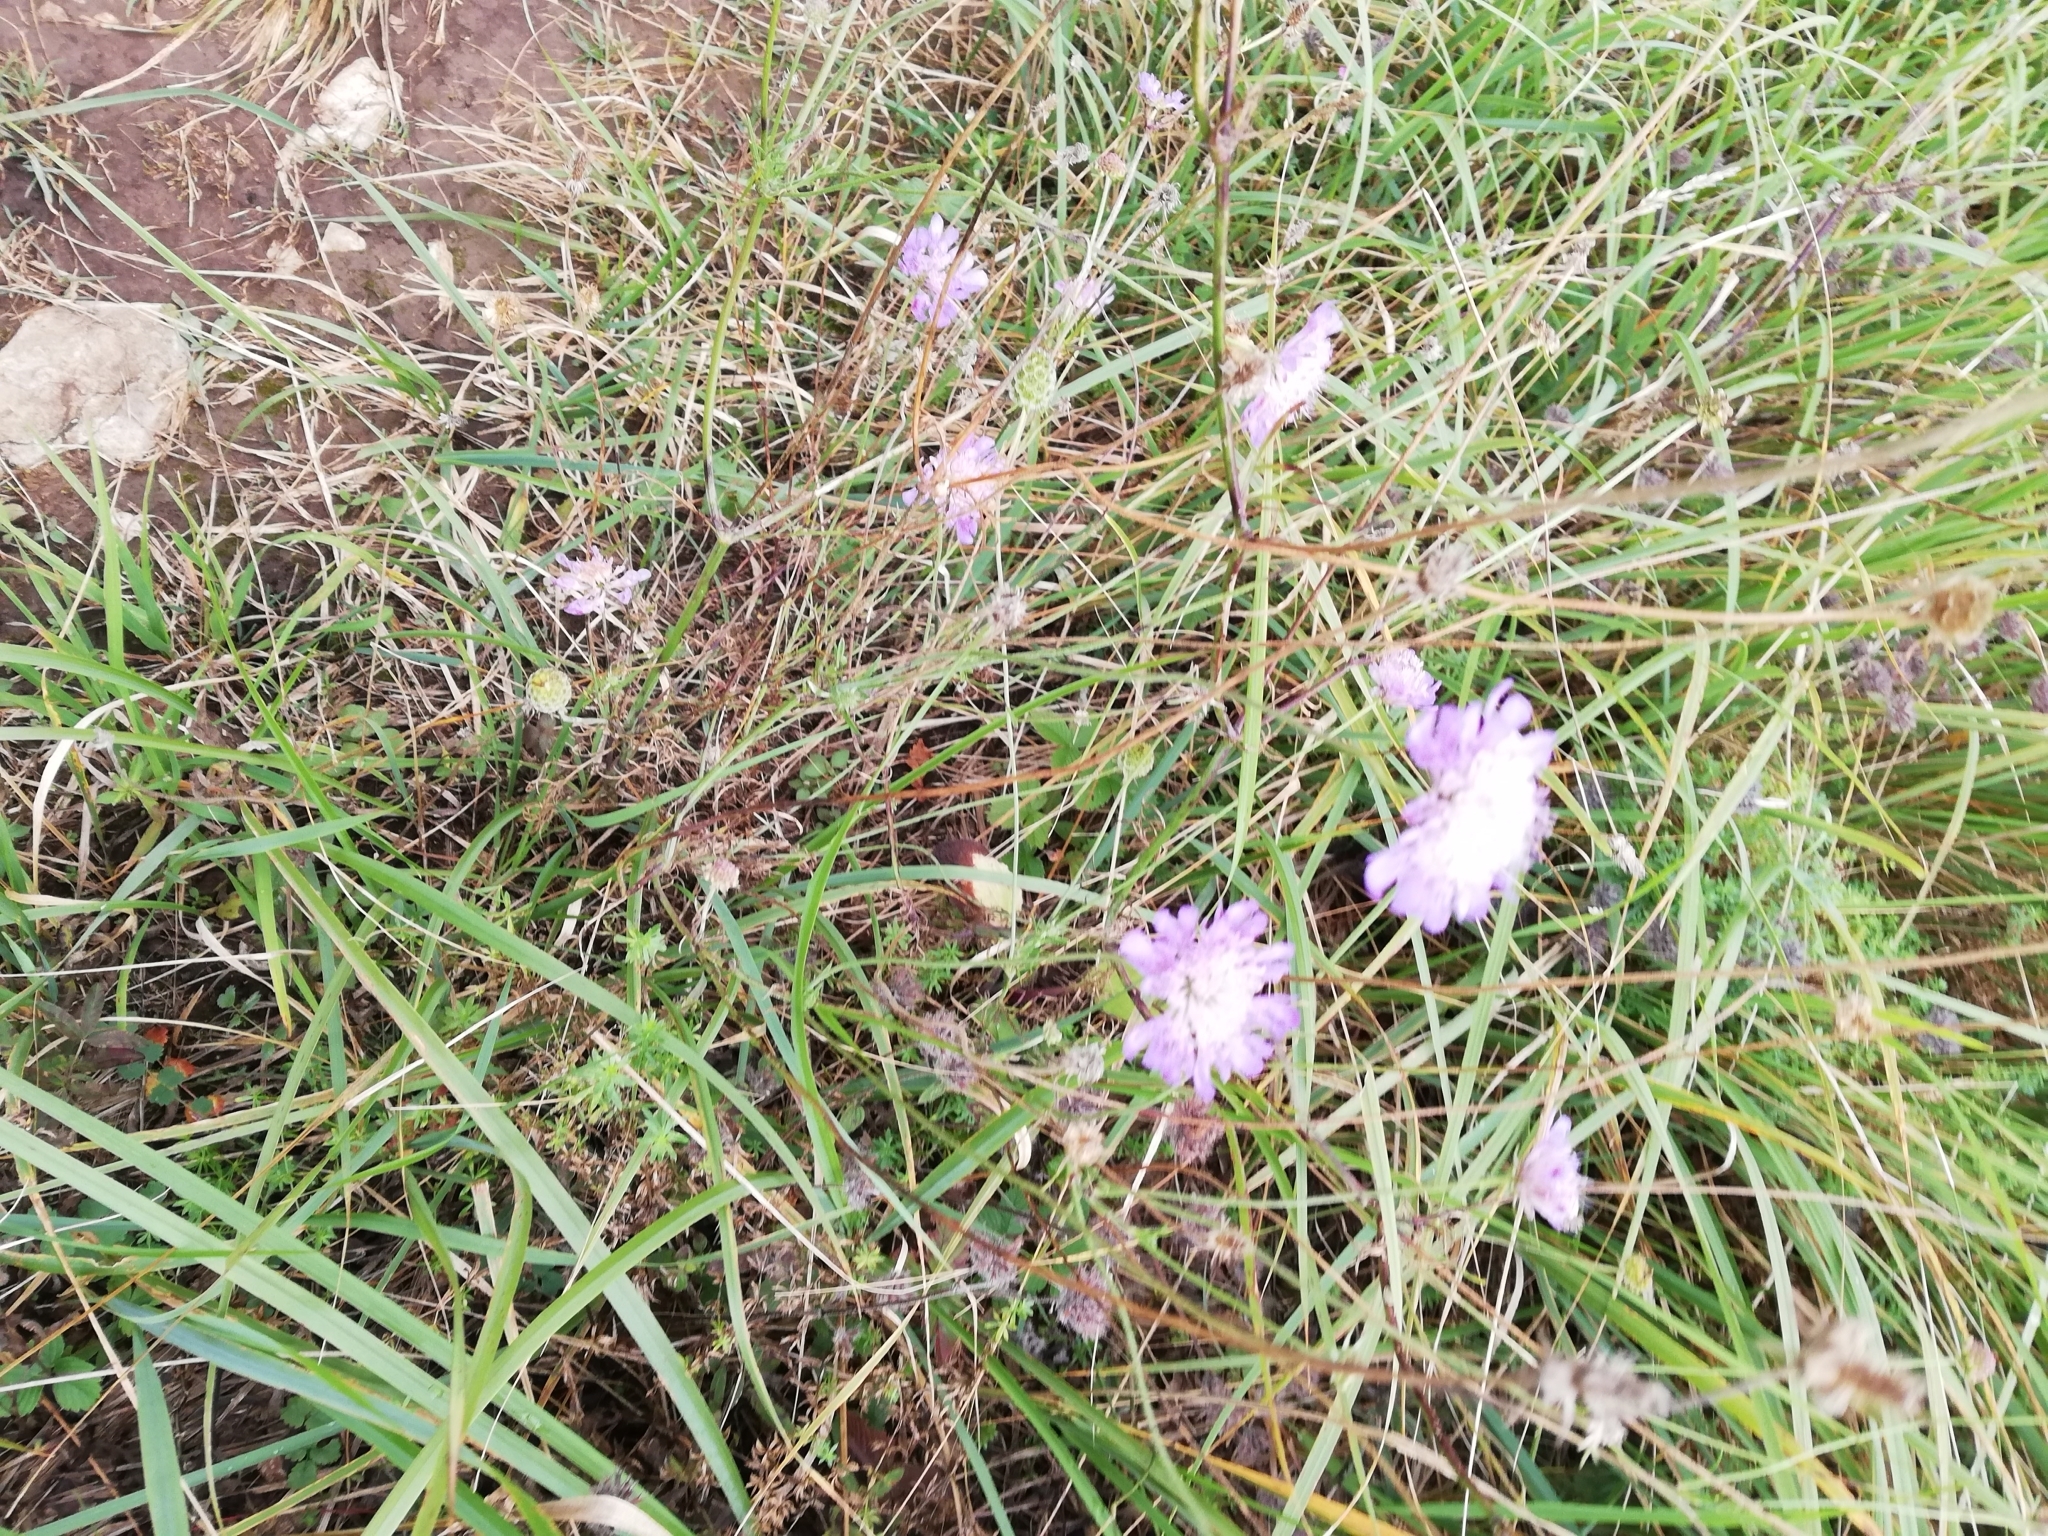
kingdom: Plantae
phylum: Tracheophyta
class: Magnoliopsida
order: Dipsacales
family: Caprifoliaceae
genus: Knautia
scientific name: Knautia arvensis
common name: Field scabiosa
